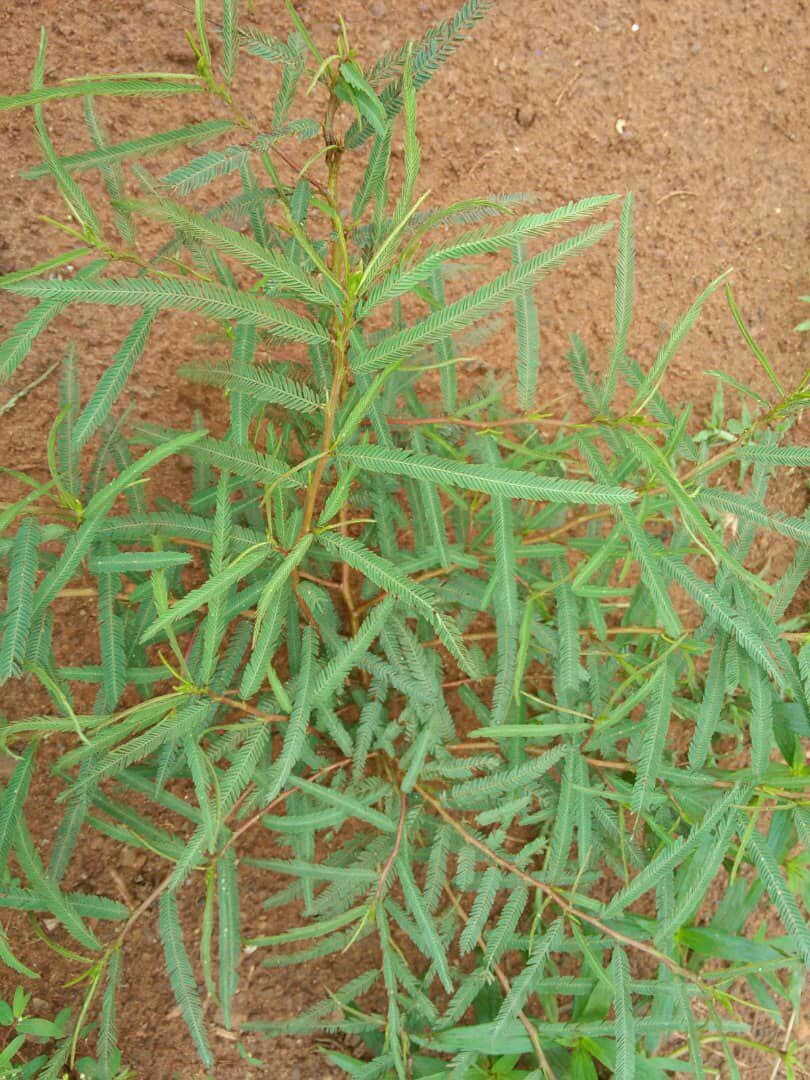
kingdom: Plantae
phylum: Tracheophyta
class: Magnoliopsida
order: Fabales
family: Fabaceae
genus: Chamaecrista
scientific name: Chamaecrista mimosoides
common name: Fish-bone cassia
